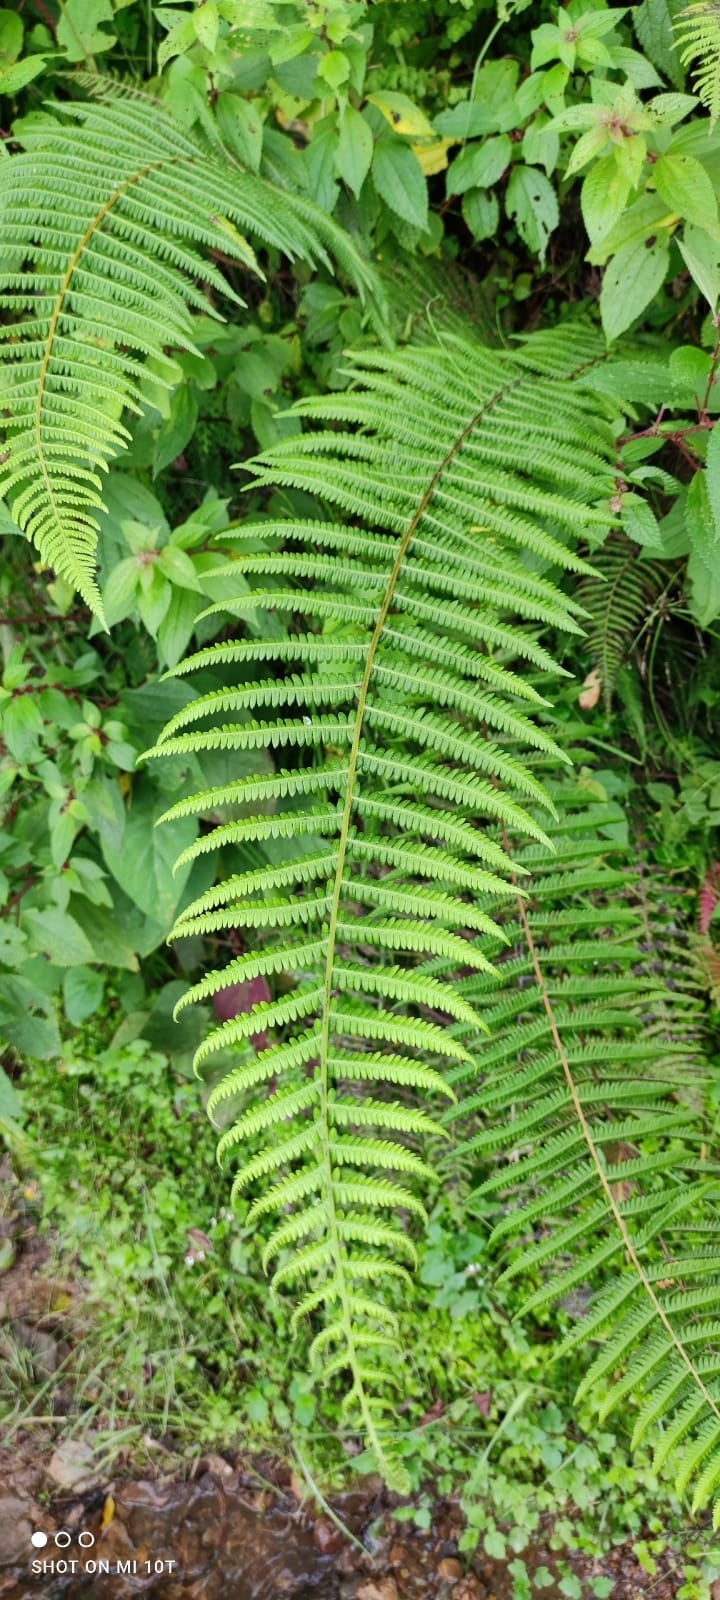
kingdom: Plantae
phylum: Tracheophyta
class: Polypodiopsida
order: Gleicheniales
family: Gleicheniaceae
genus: Diplopterygium
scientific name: Diplopterygium glaucum
